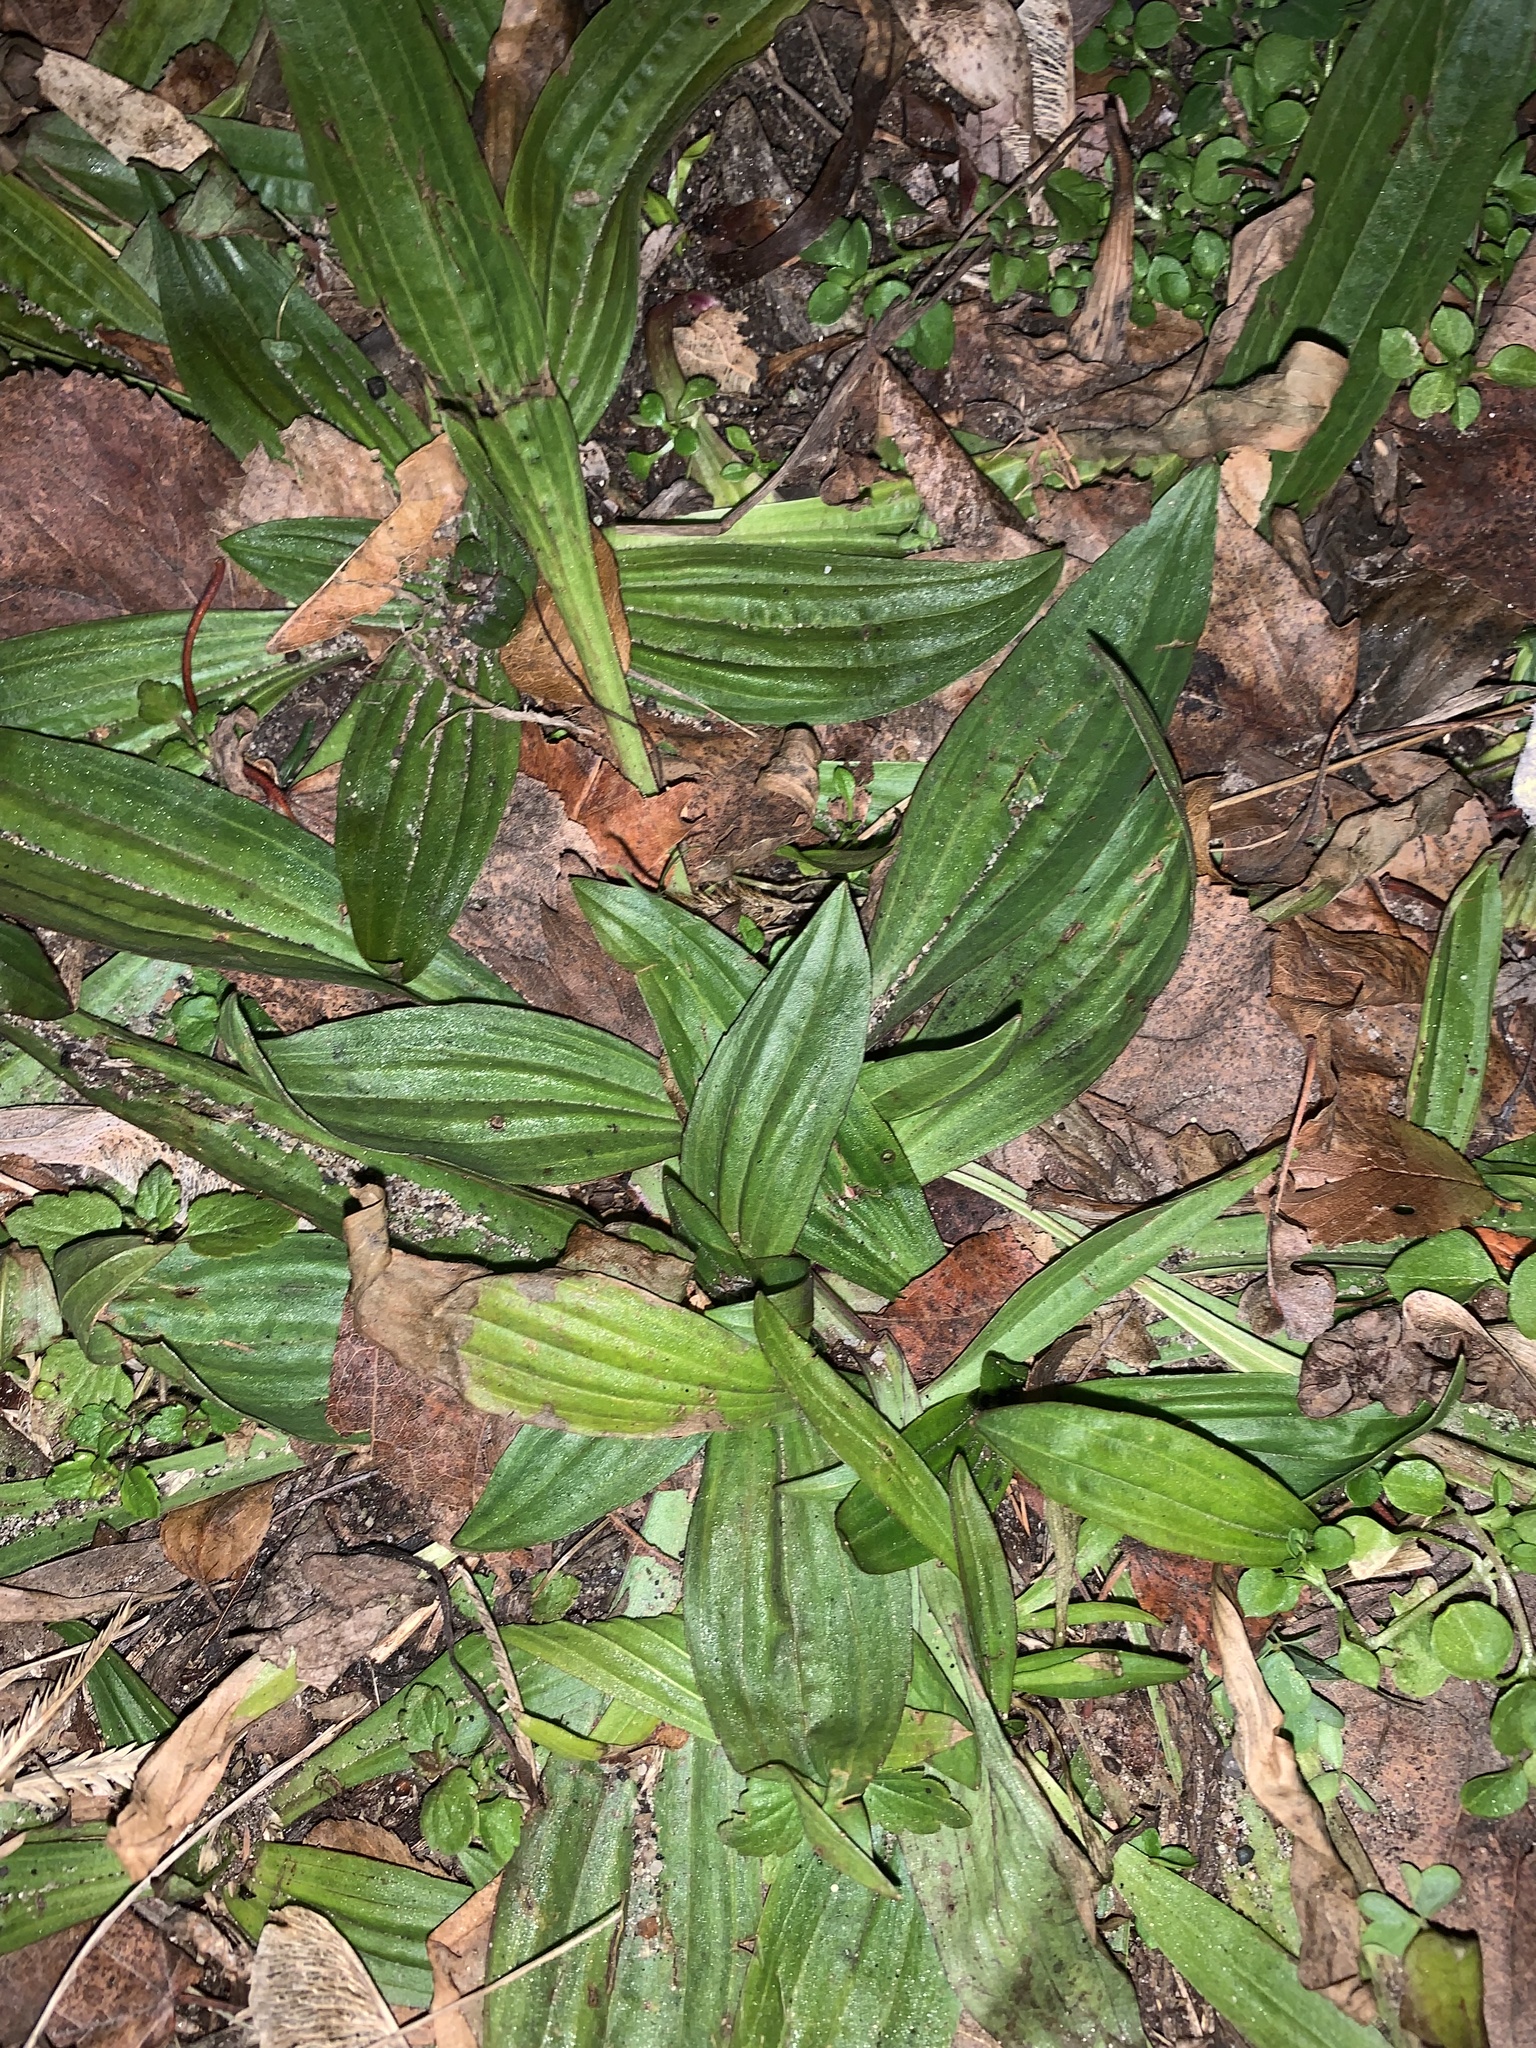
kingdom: Plantae
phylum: Tracheophyta
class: Magnoliopsida
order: Lamiales
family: Plantaginaceae
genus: Plantago
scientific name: Plantago lanceolata
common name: Ribwort plantain
